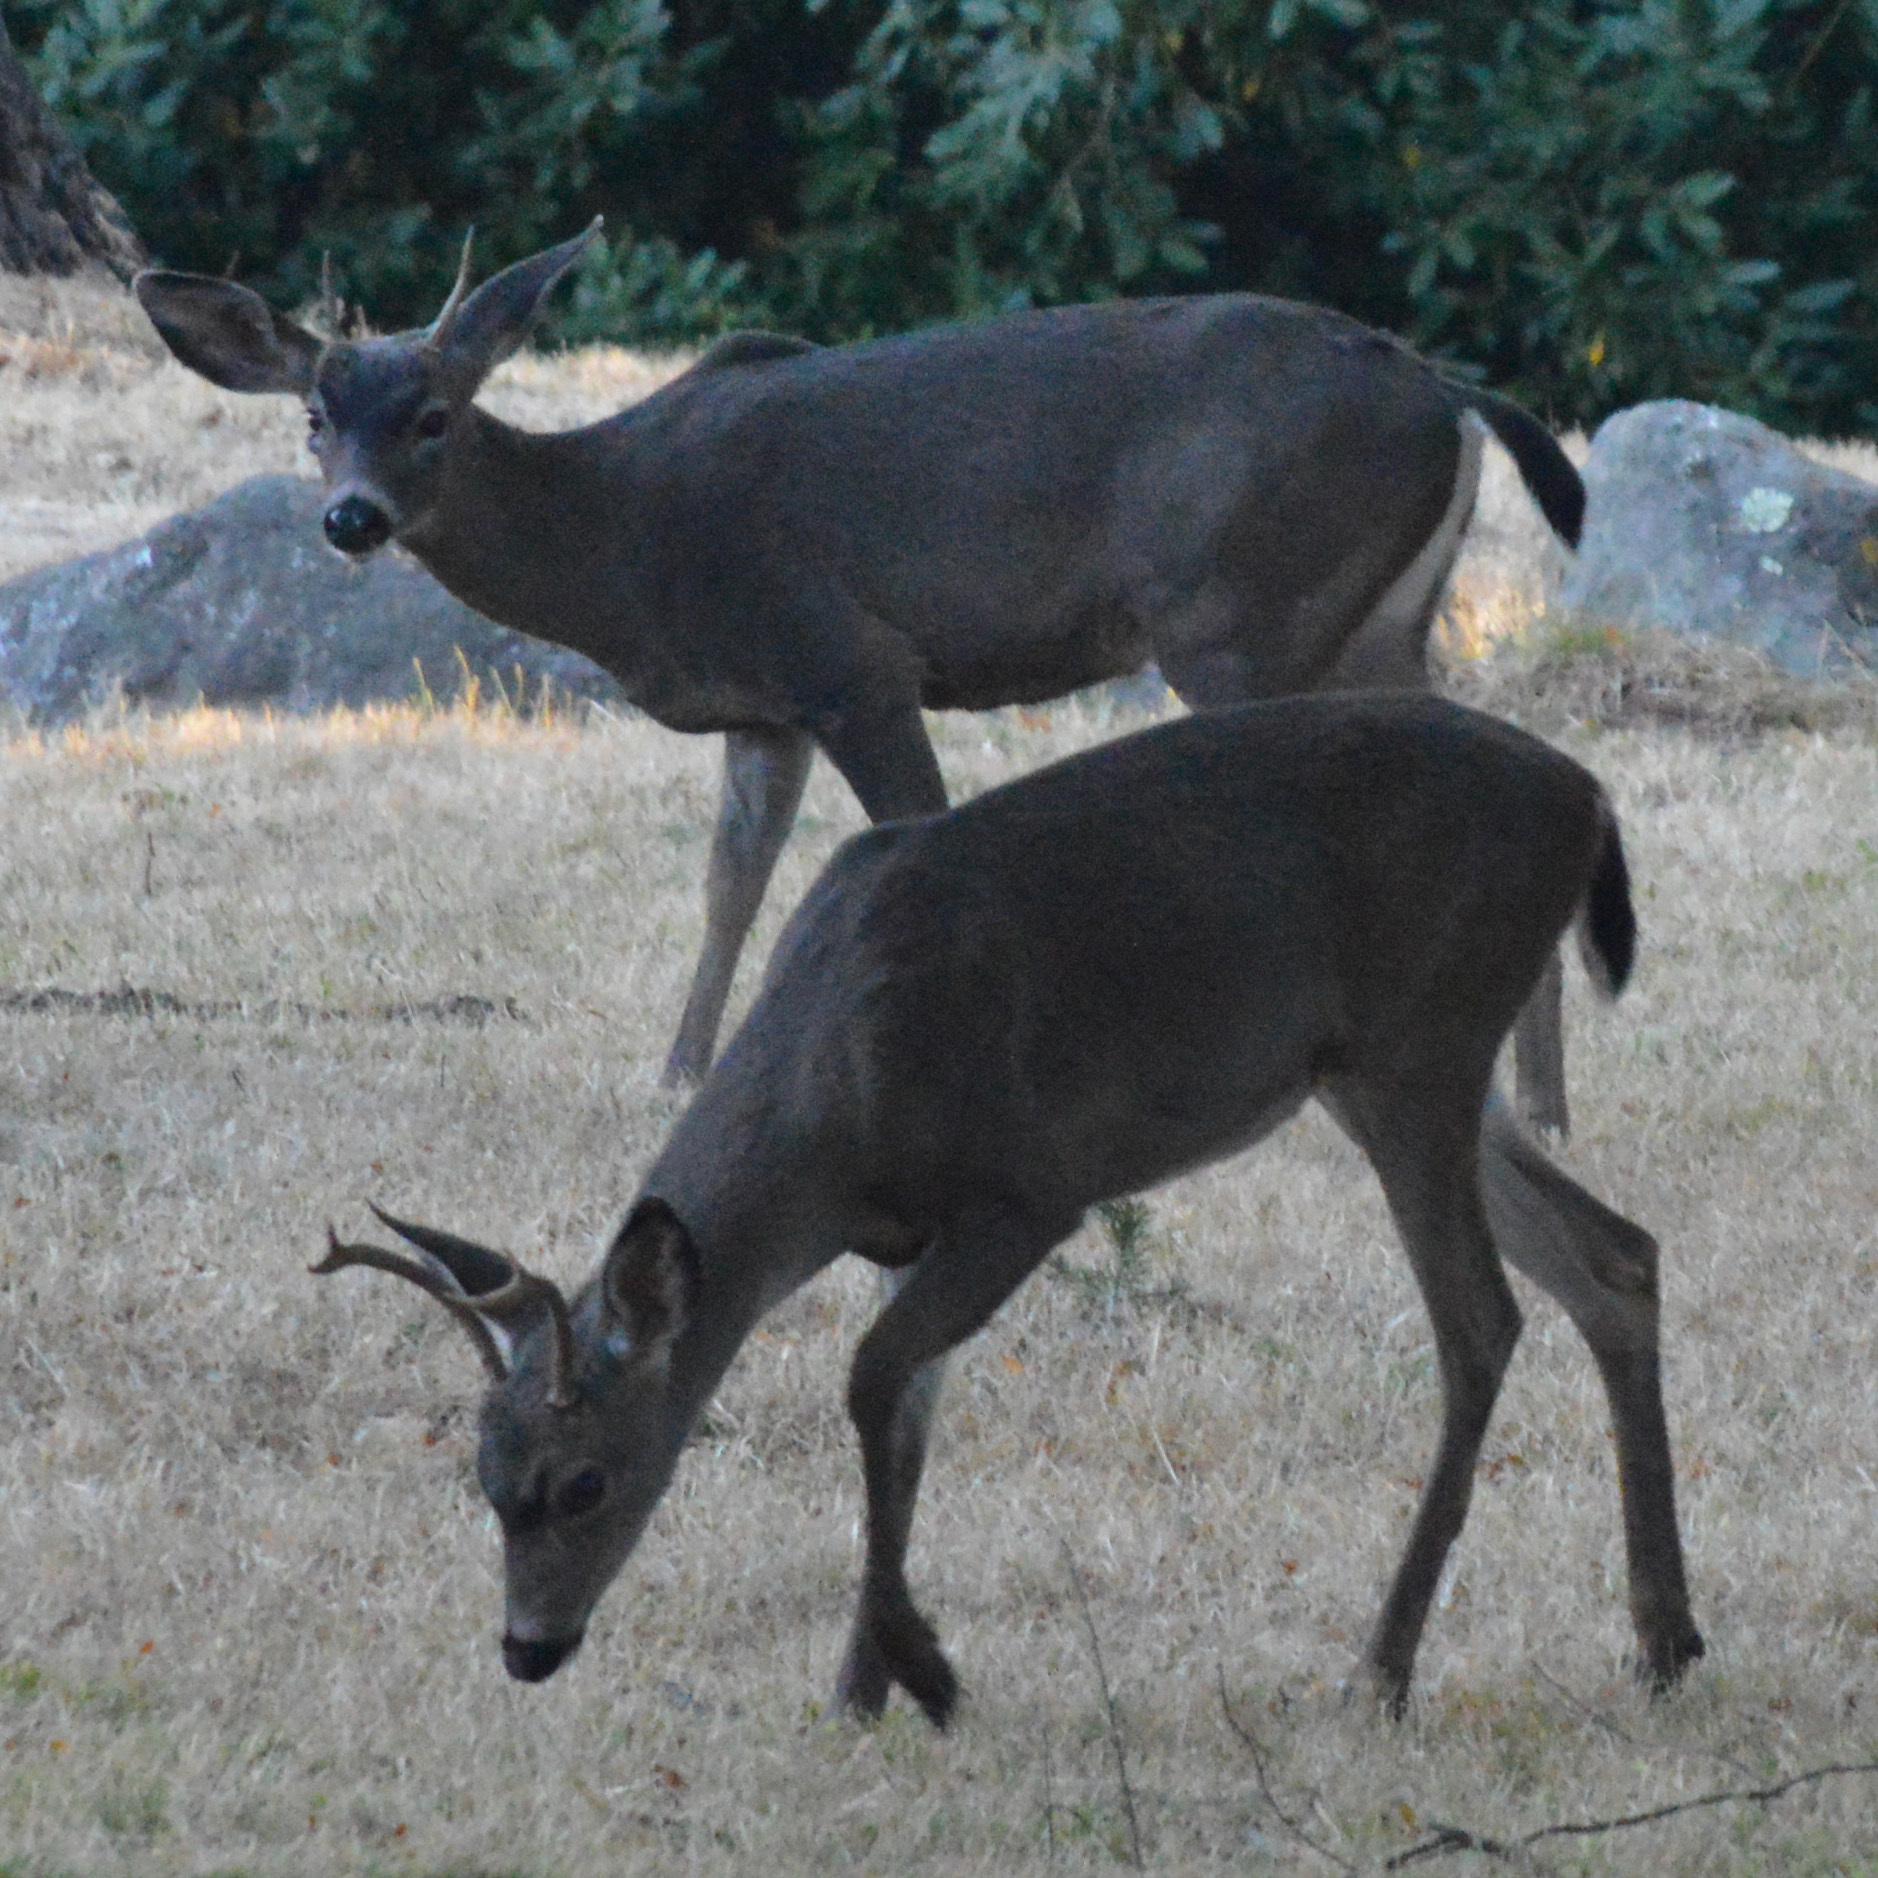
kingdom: Animalia
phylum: Chordata
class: Mammalia
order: Artiodactyla
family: Cervidae
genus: Odocoileus
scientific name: Odocoileus hemionus
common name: Mule deer
